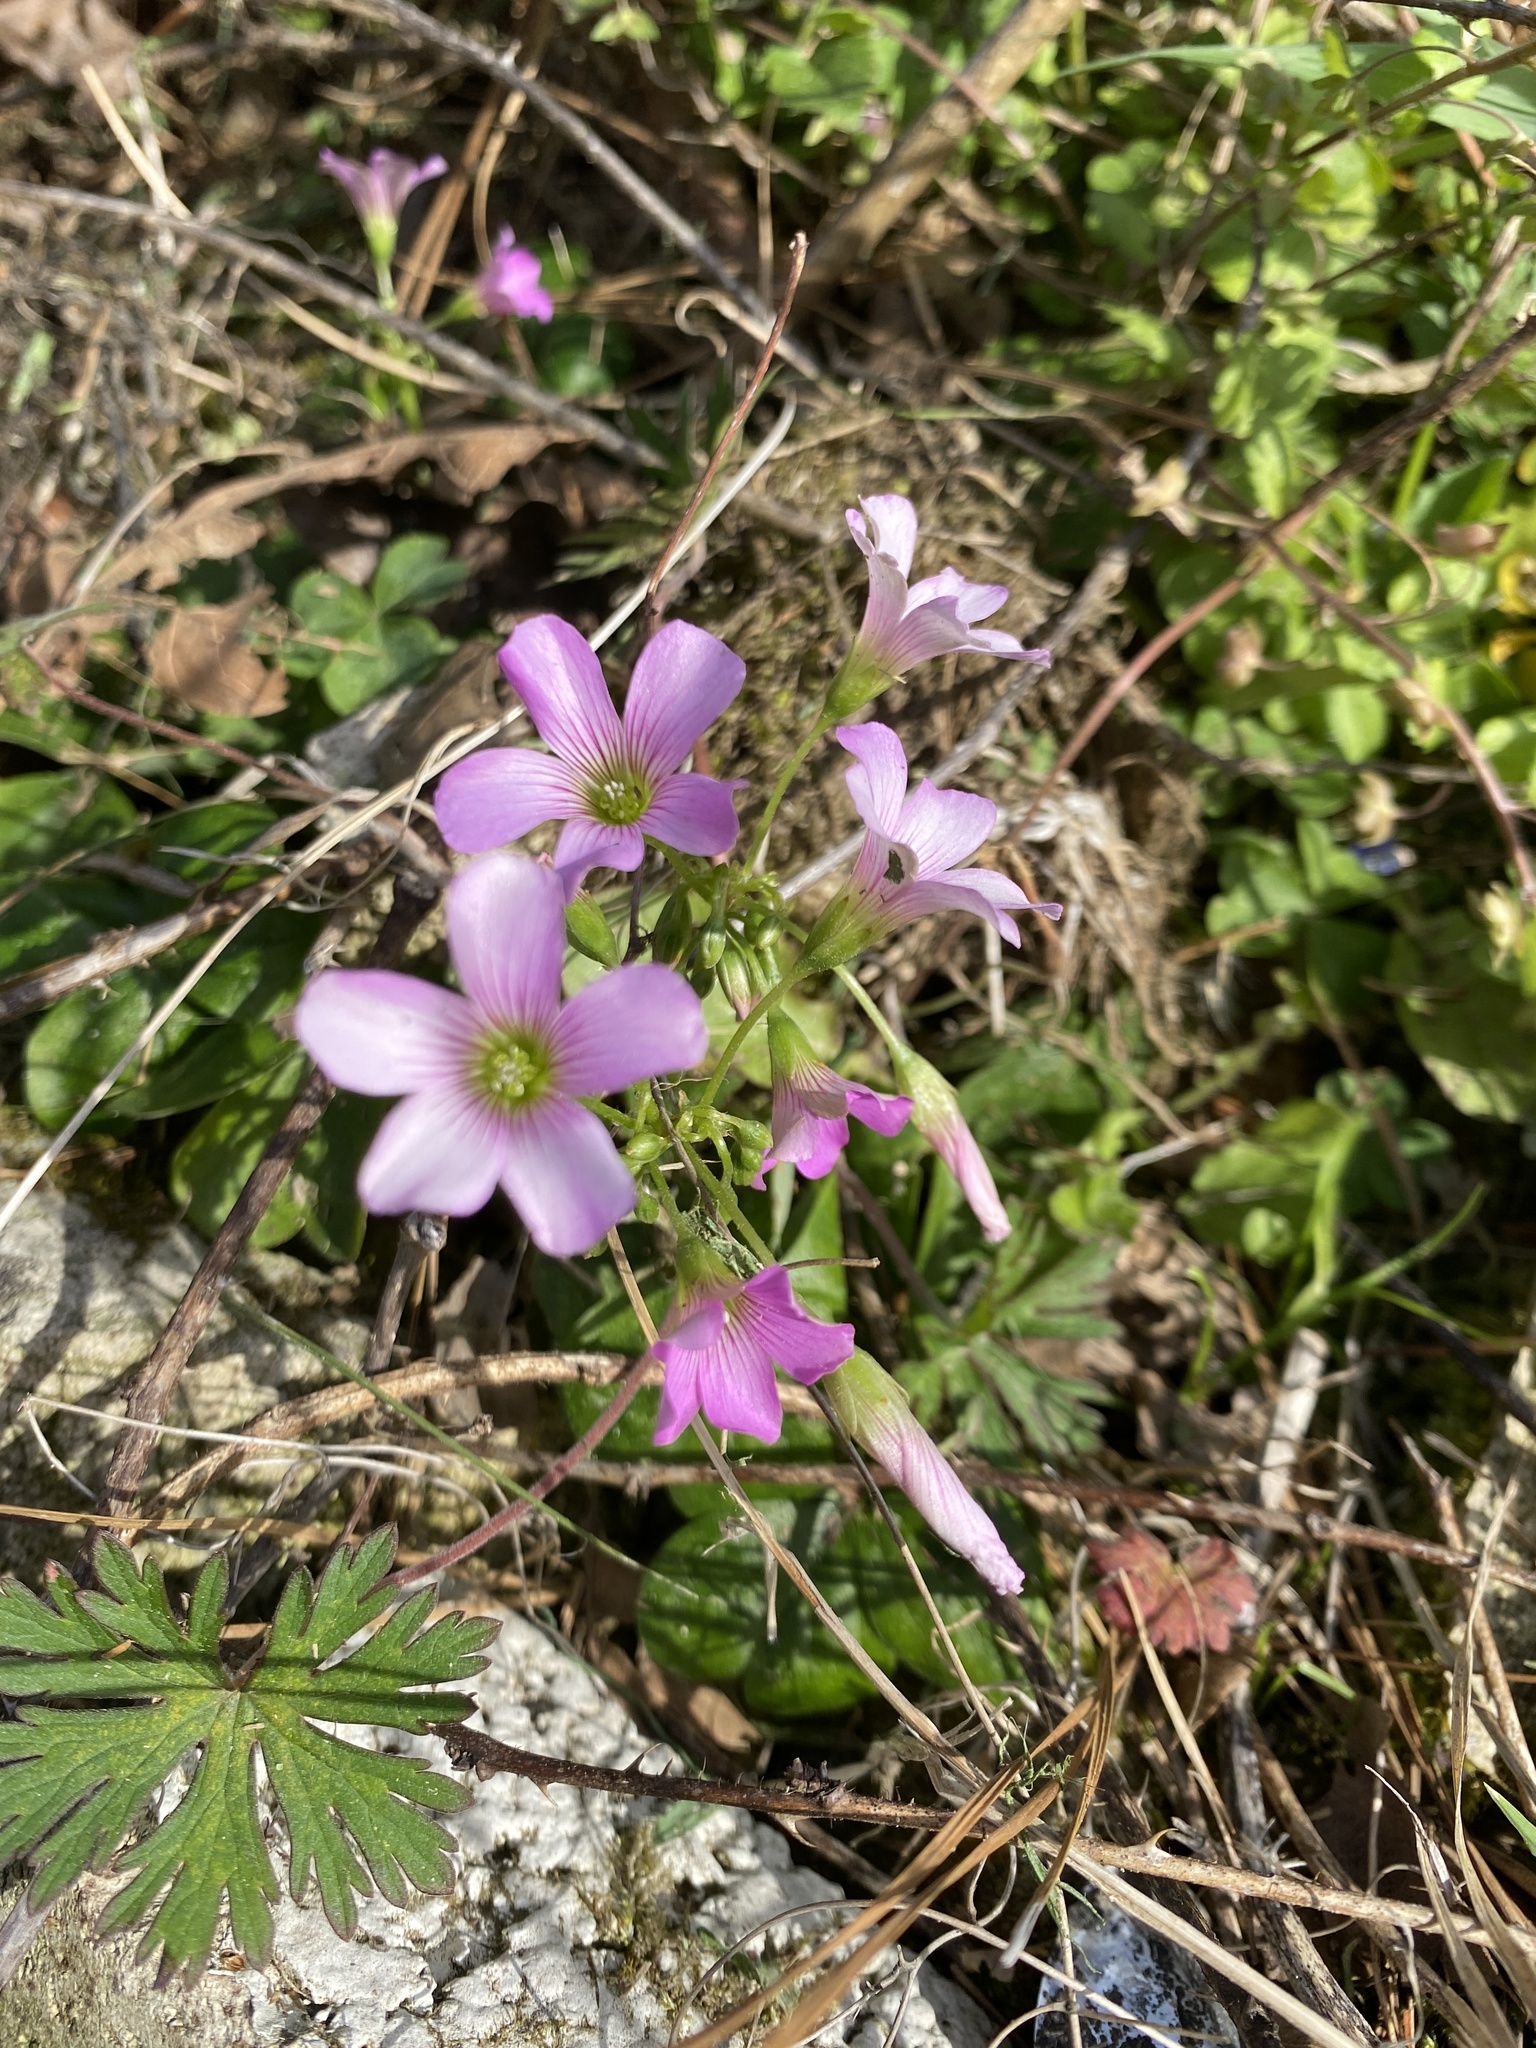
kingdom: Plantae
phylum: Tracheophyta
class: Magnoliopsida
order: Oxalidales
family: Oxalidaceae
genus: Oxalis
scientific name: Oxalis debilis
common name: Large-flowered pink-sorrel
